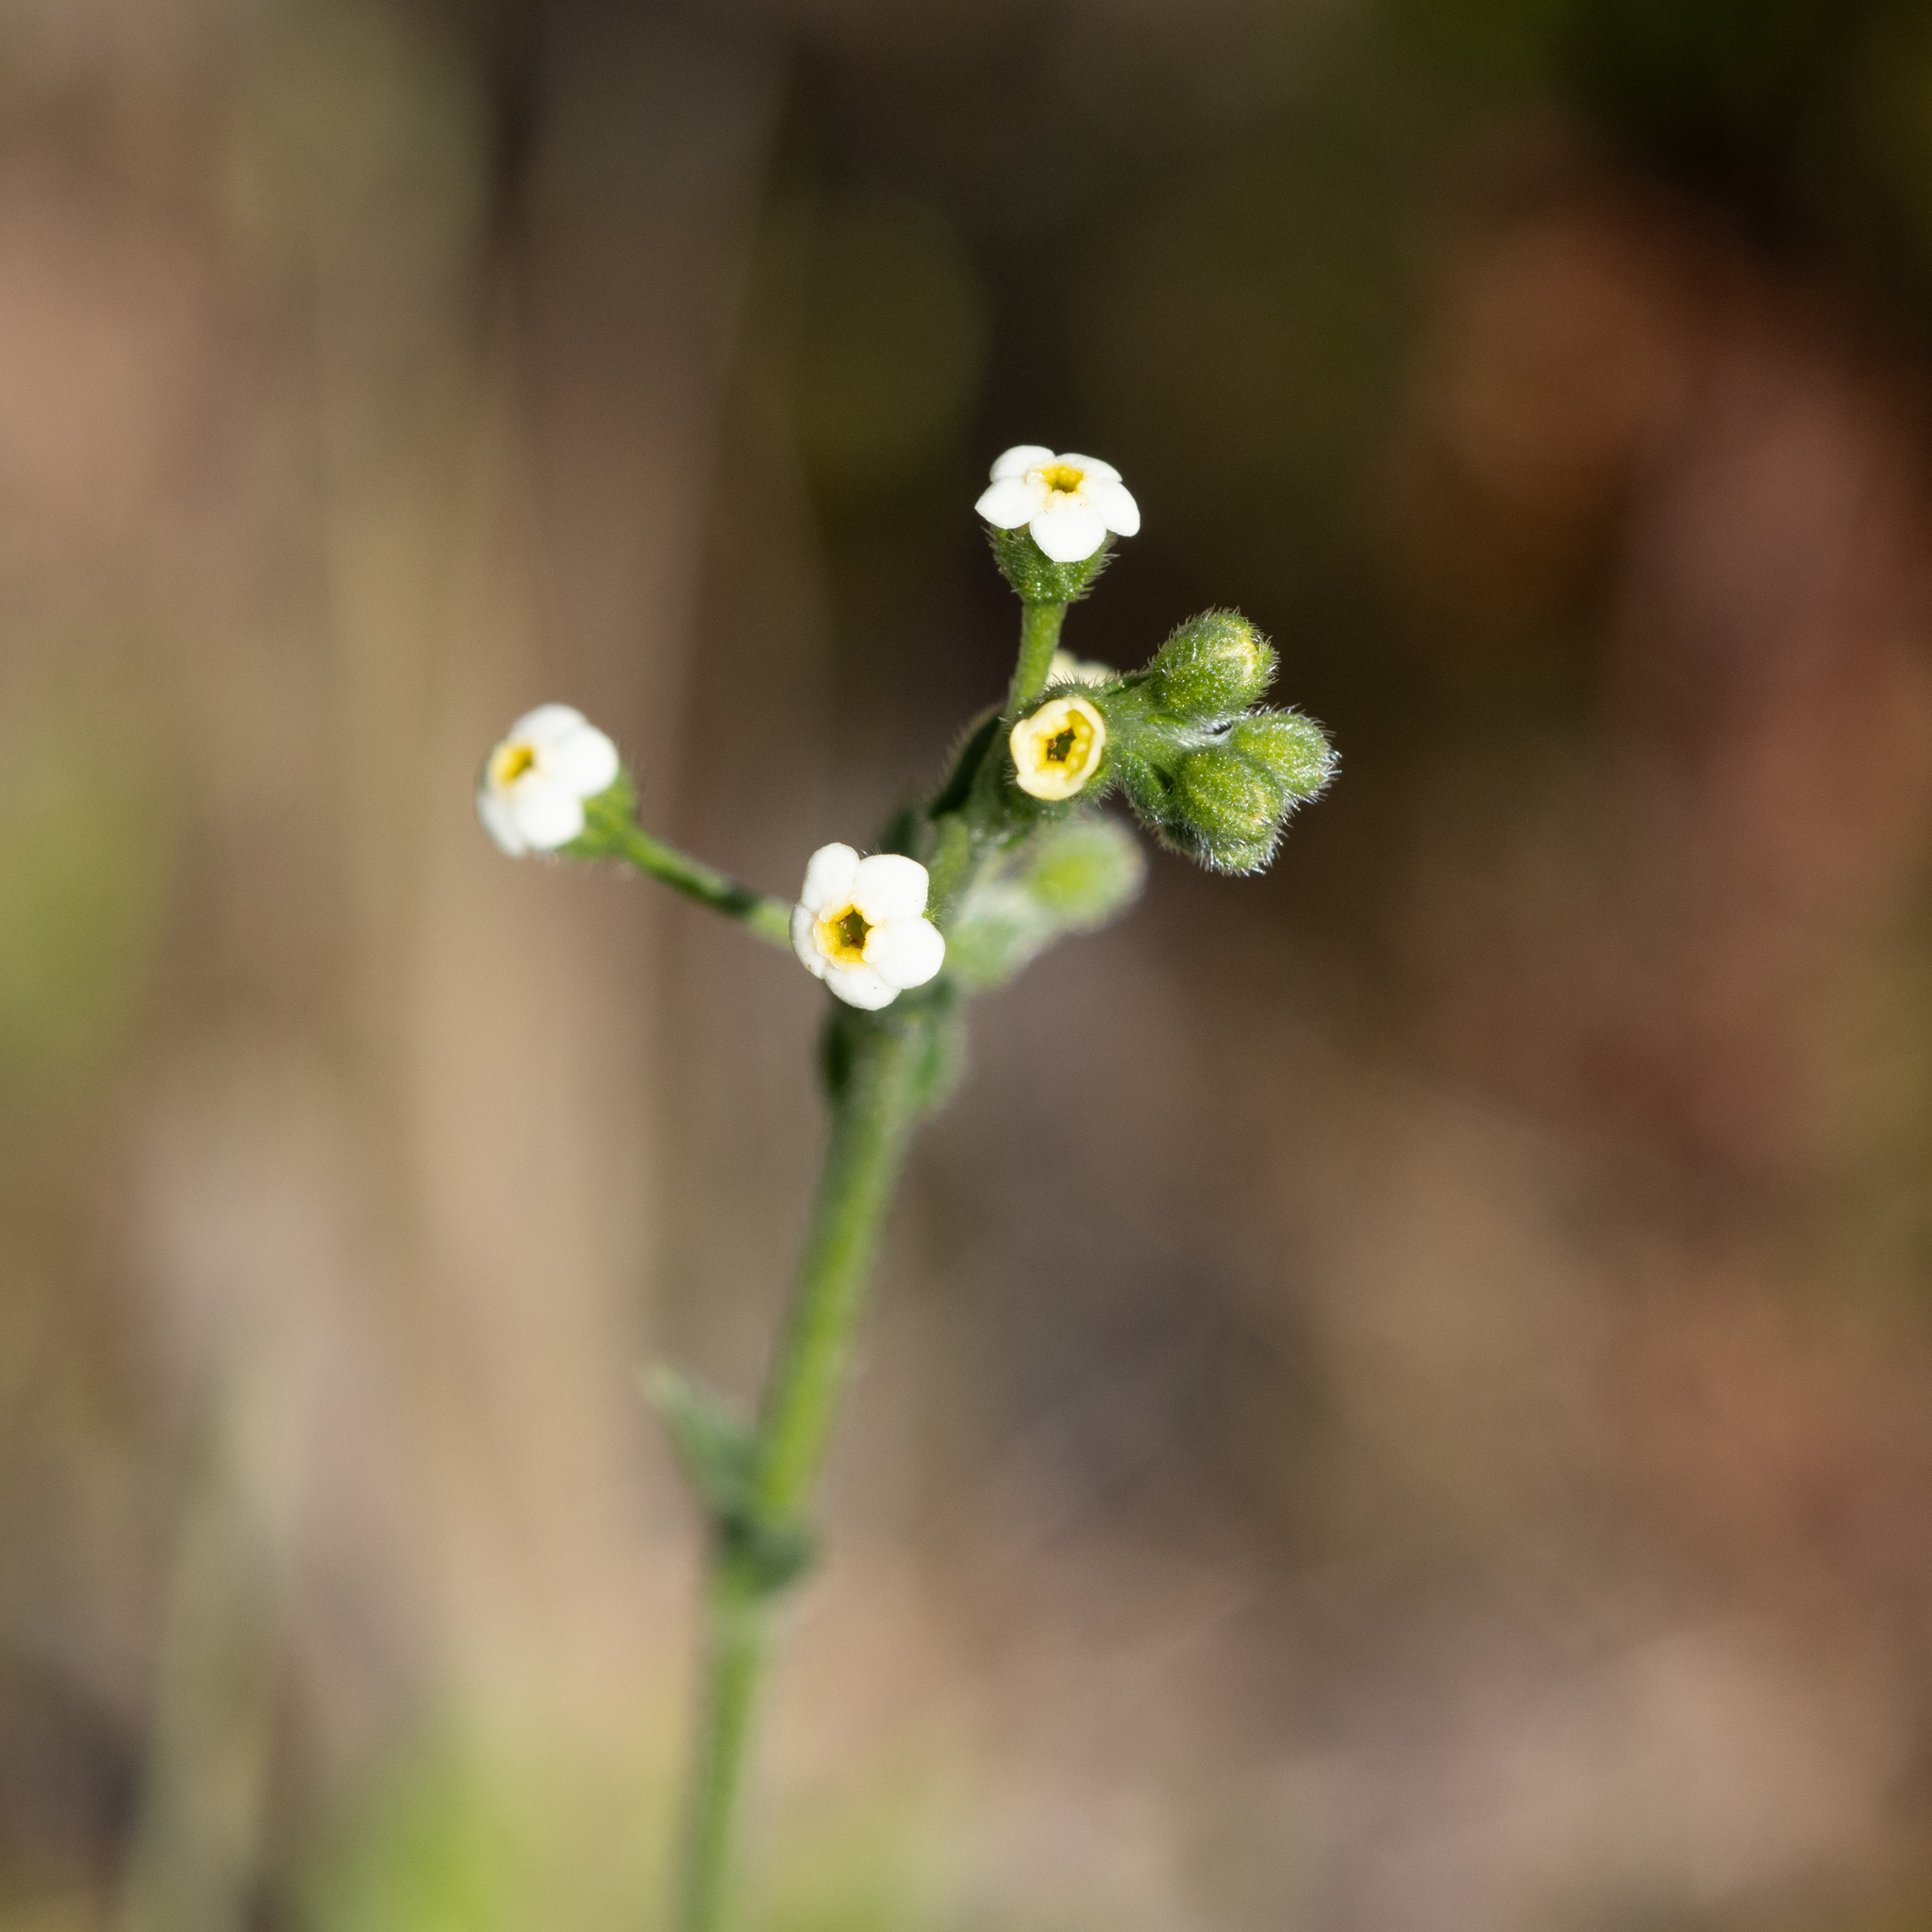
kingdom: Plantae
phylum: Tracheophyta
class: Magnoliopsida
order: Boraginales
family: Boraginaceae
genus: Hackelia
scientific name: Hackelia suaveolens
